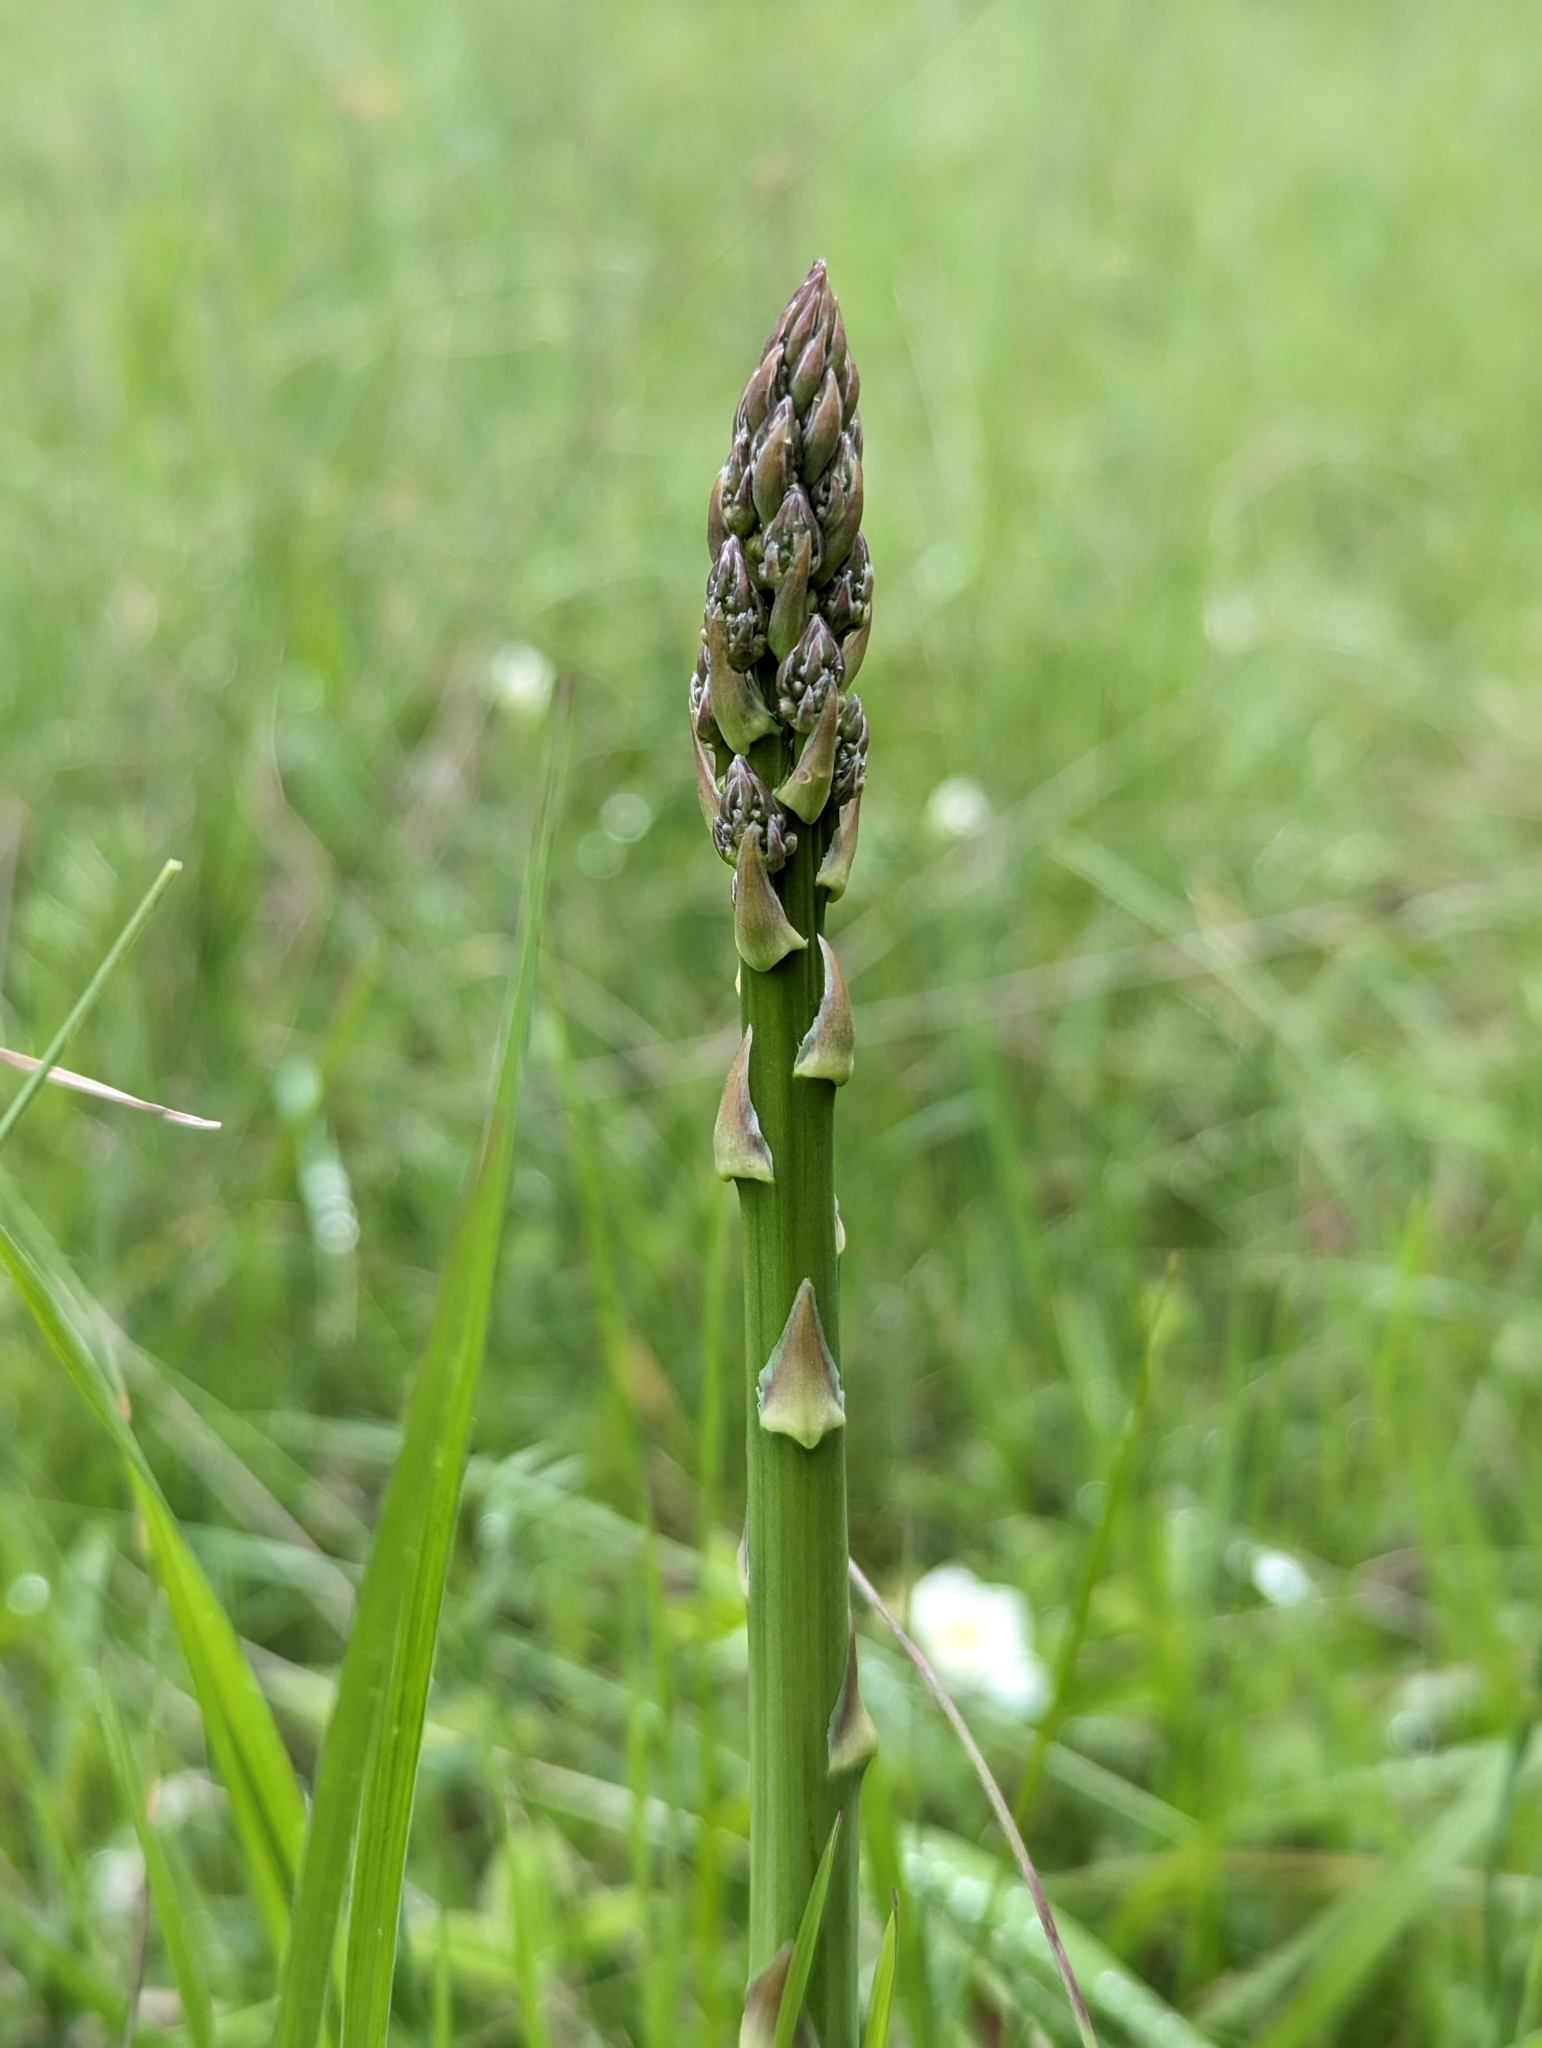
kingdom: Plantae
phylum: Tracheophyta
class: Liliopsida
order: Asparagales
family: Asparagaceae
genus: Asparagus
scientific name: Asparagus officinalis
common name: Garden asparagus
